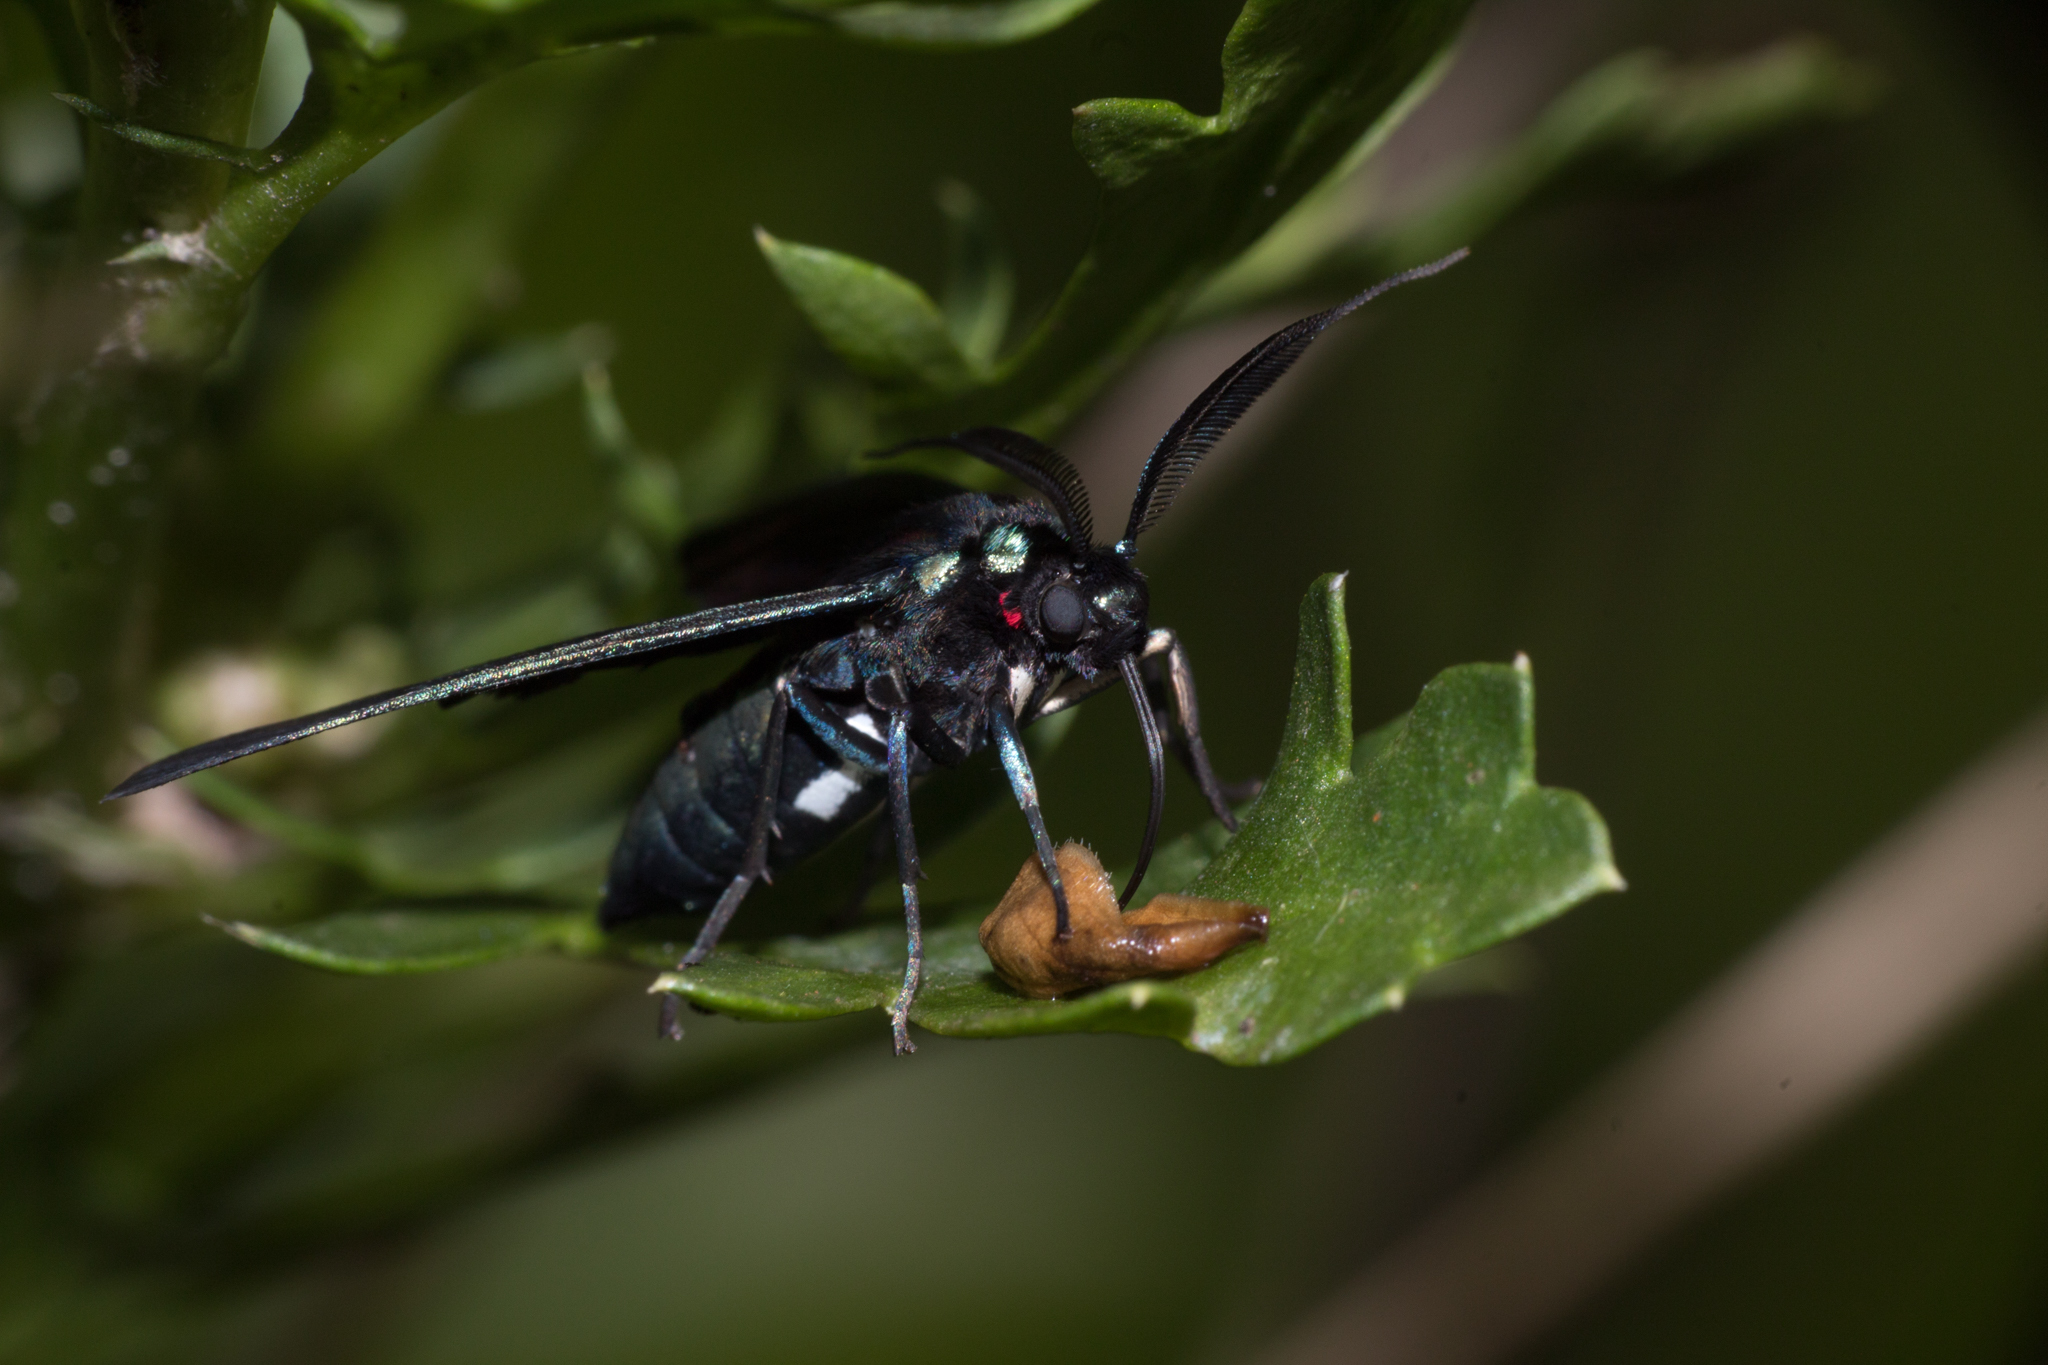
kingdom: Animalia
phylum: Arthropoda
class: Insecta
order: Lepidoptera
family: Erebidae
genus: Antichloris
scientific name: Antichloris eriphia
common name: Banana stowaway
